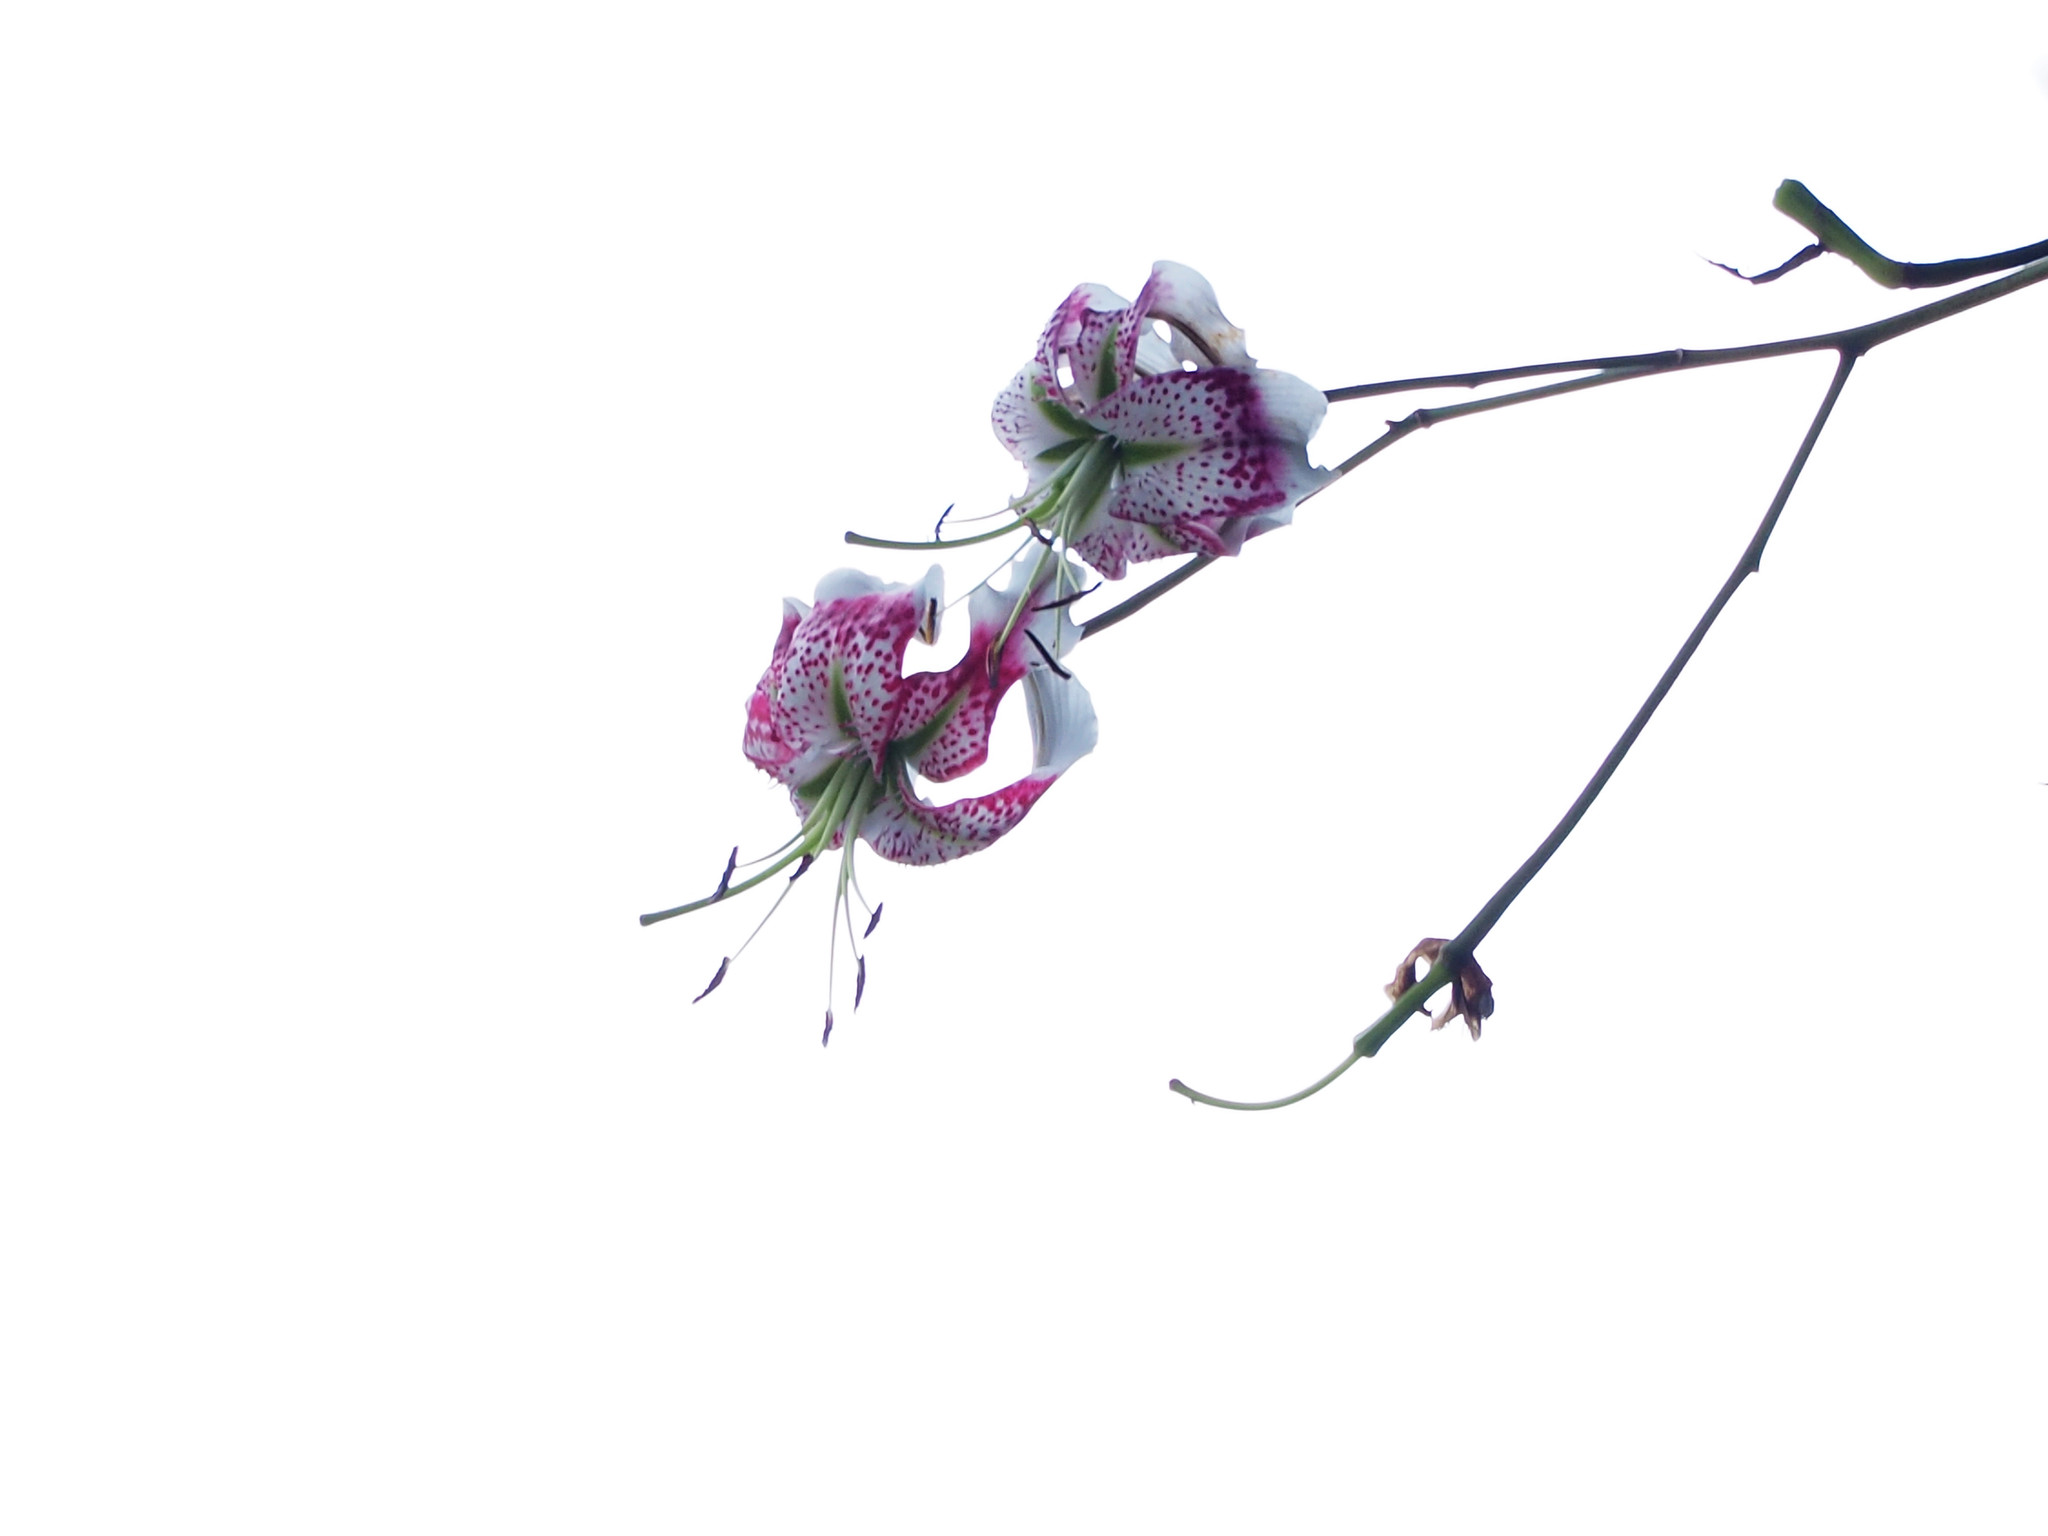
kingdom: Plantae
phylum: Tracheophyta
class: Liliopsida
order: Liliales
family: Liliaceae
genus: Lilium
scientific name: Lilium speciosum
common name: Japanese lily
